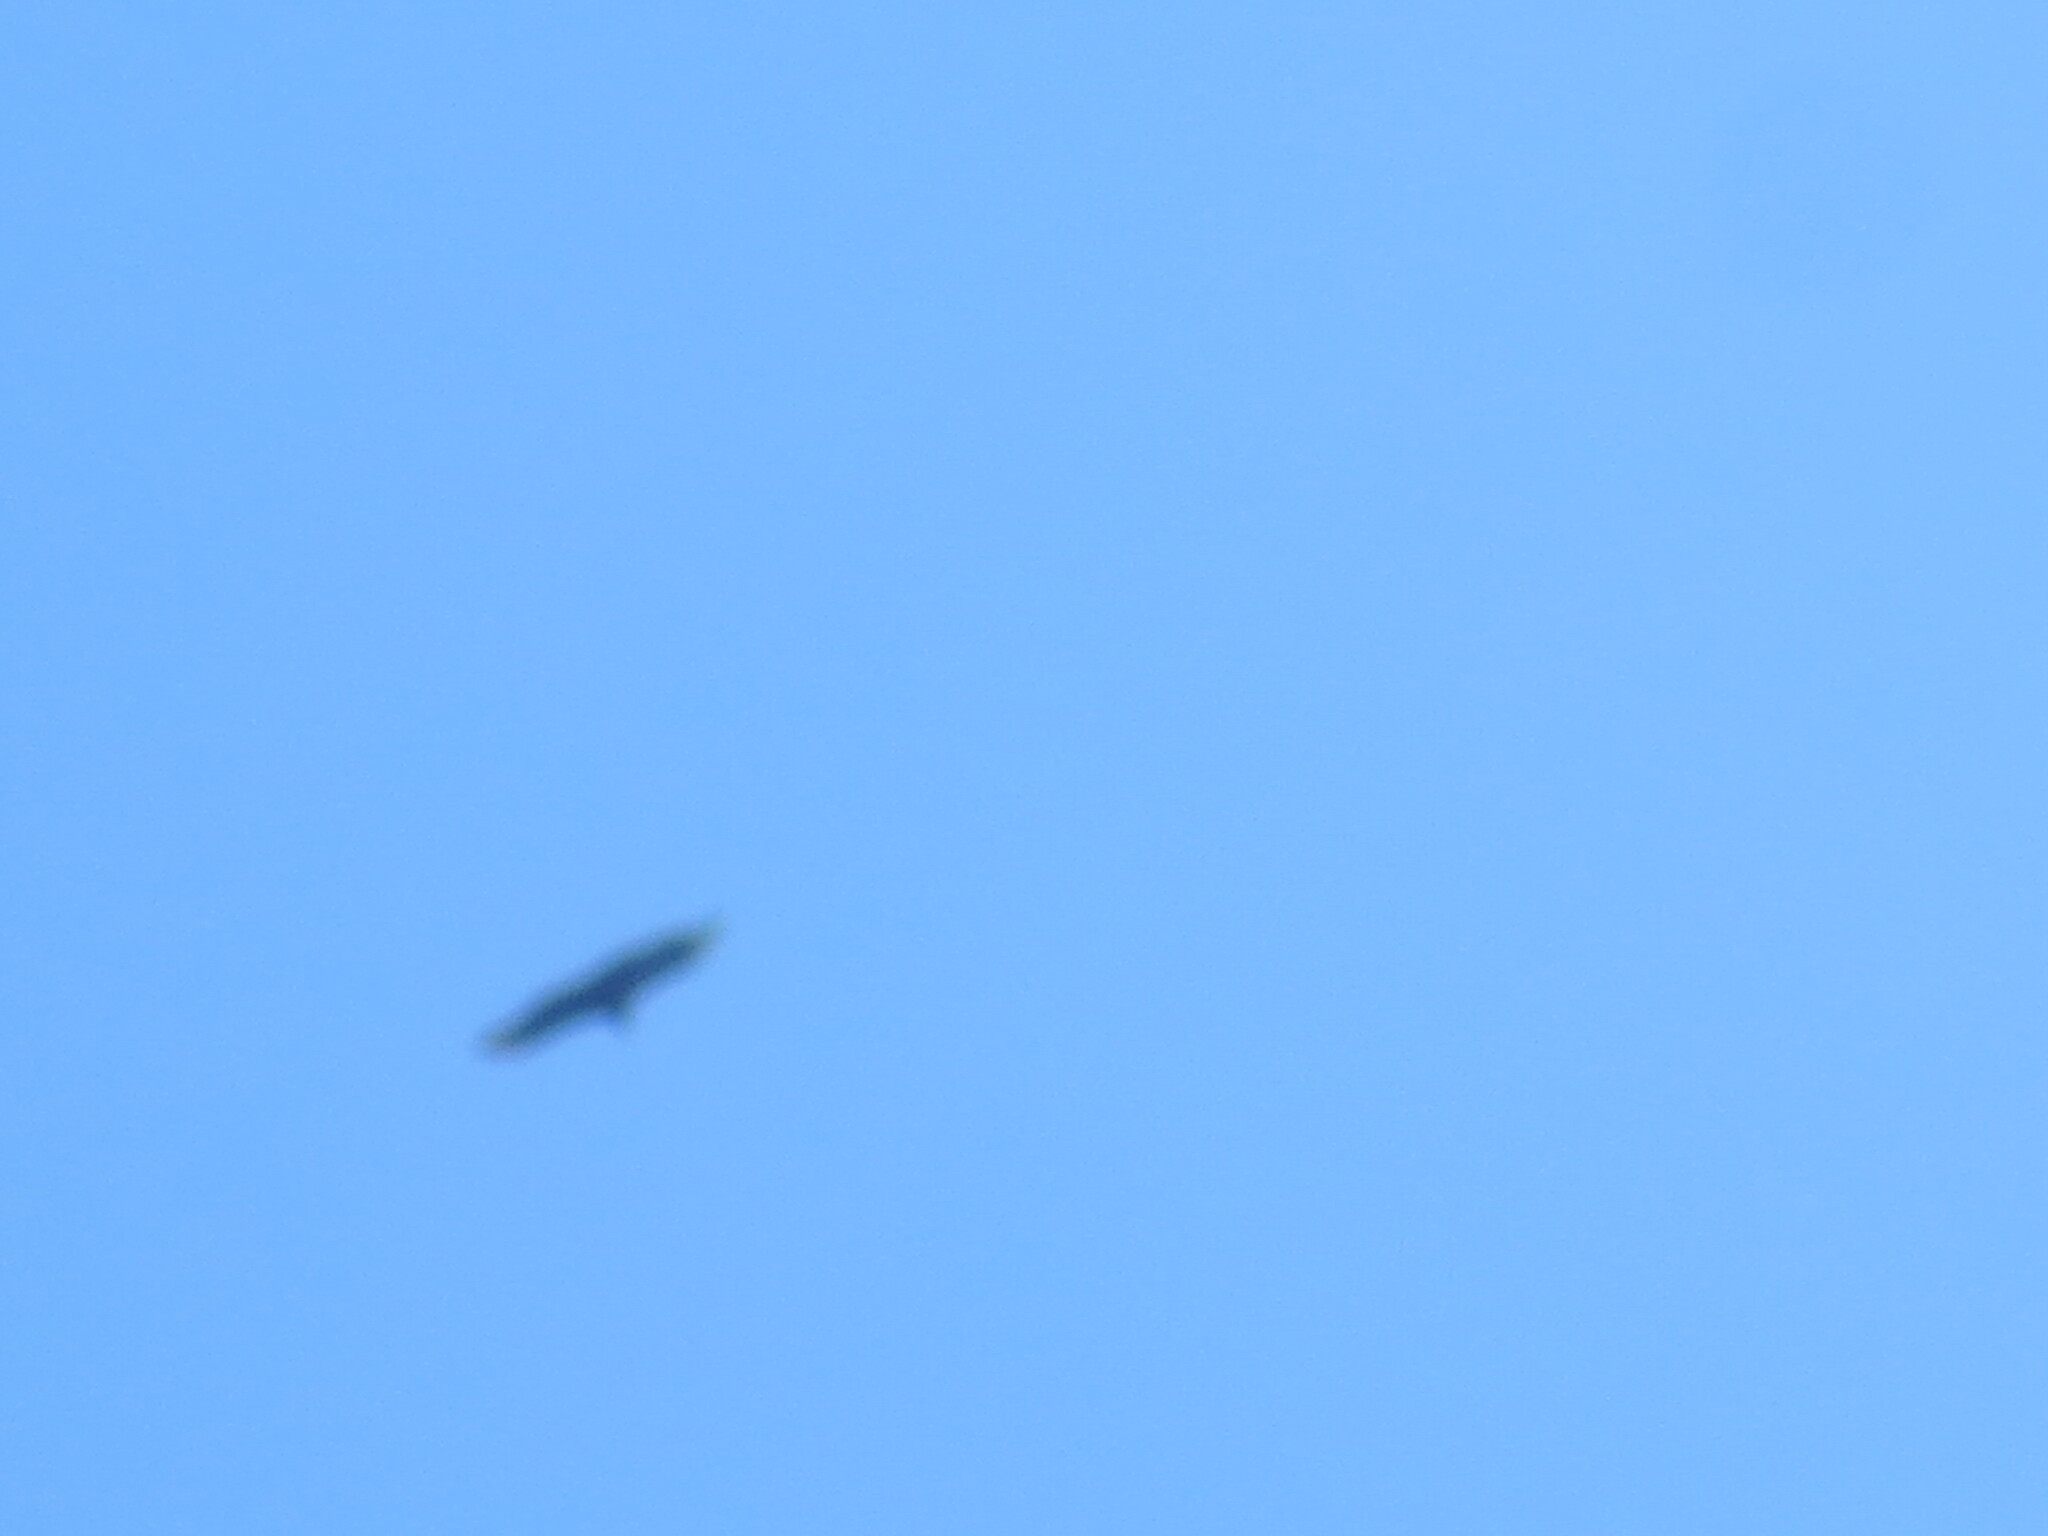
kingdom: Animalia
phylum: Chordata
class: Aves
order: Accipitriformes
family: Cathartidae
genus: Coragyps
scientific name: Coragyps atratus
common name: Black vulture
